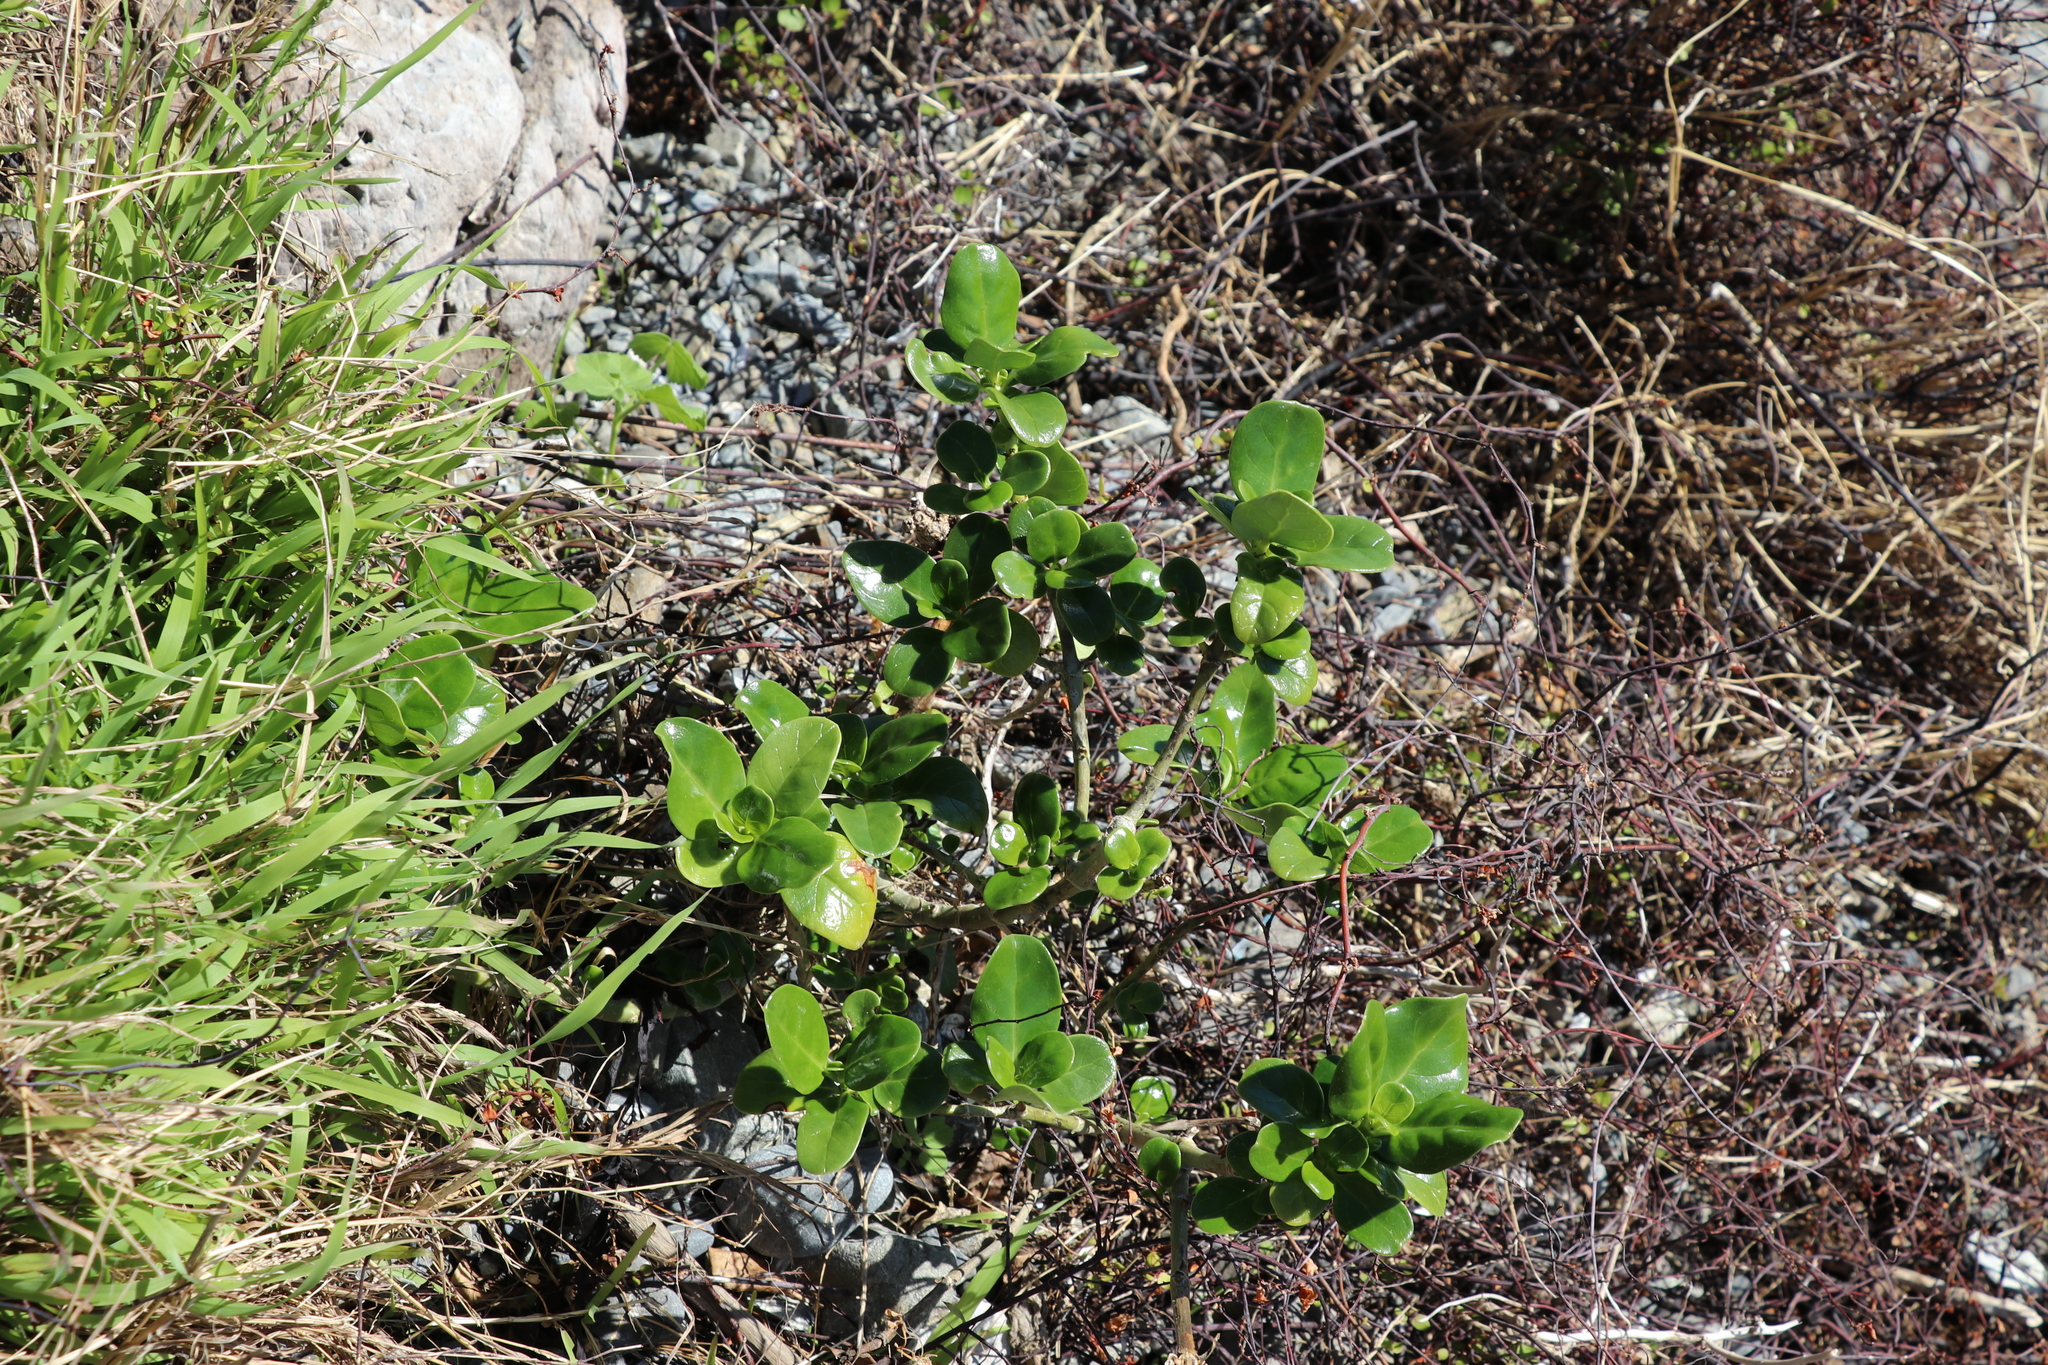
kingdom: Plantae
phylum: Tracheophyta
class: Magnoliopsida
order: Gentianales
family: Rubiaceae
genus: Coprosma
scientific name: Coprosma repens
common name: Tree bedstraw
